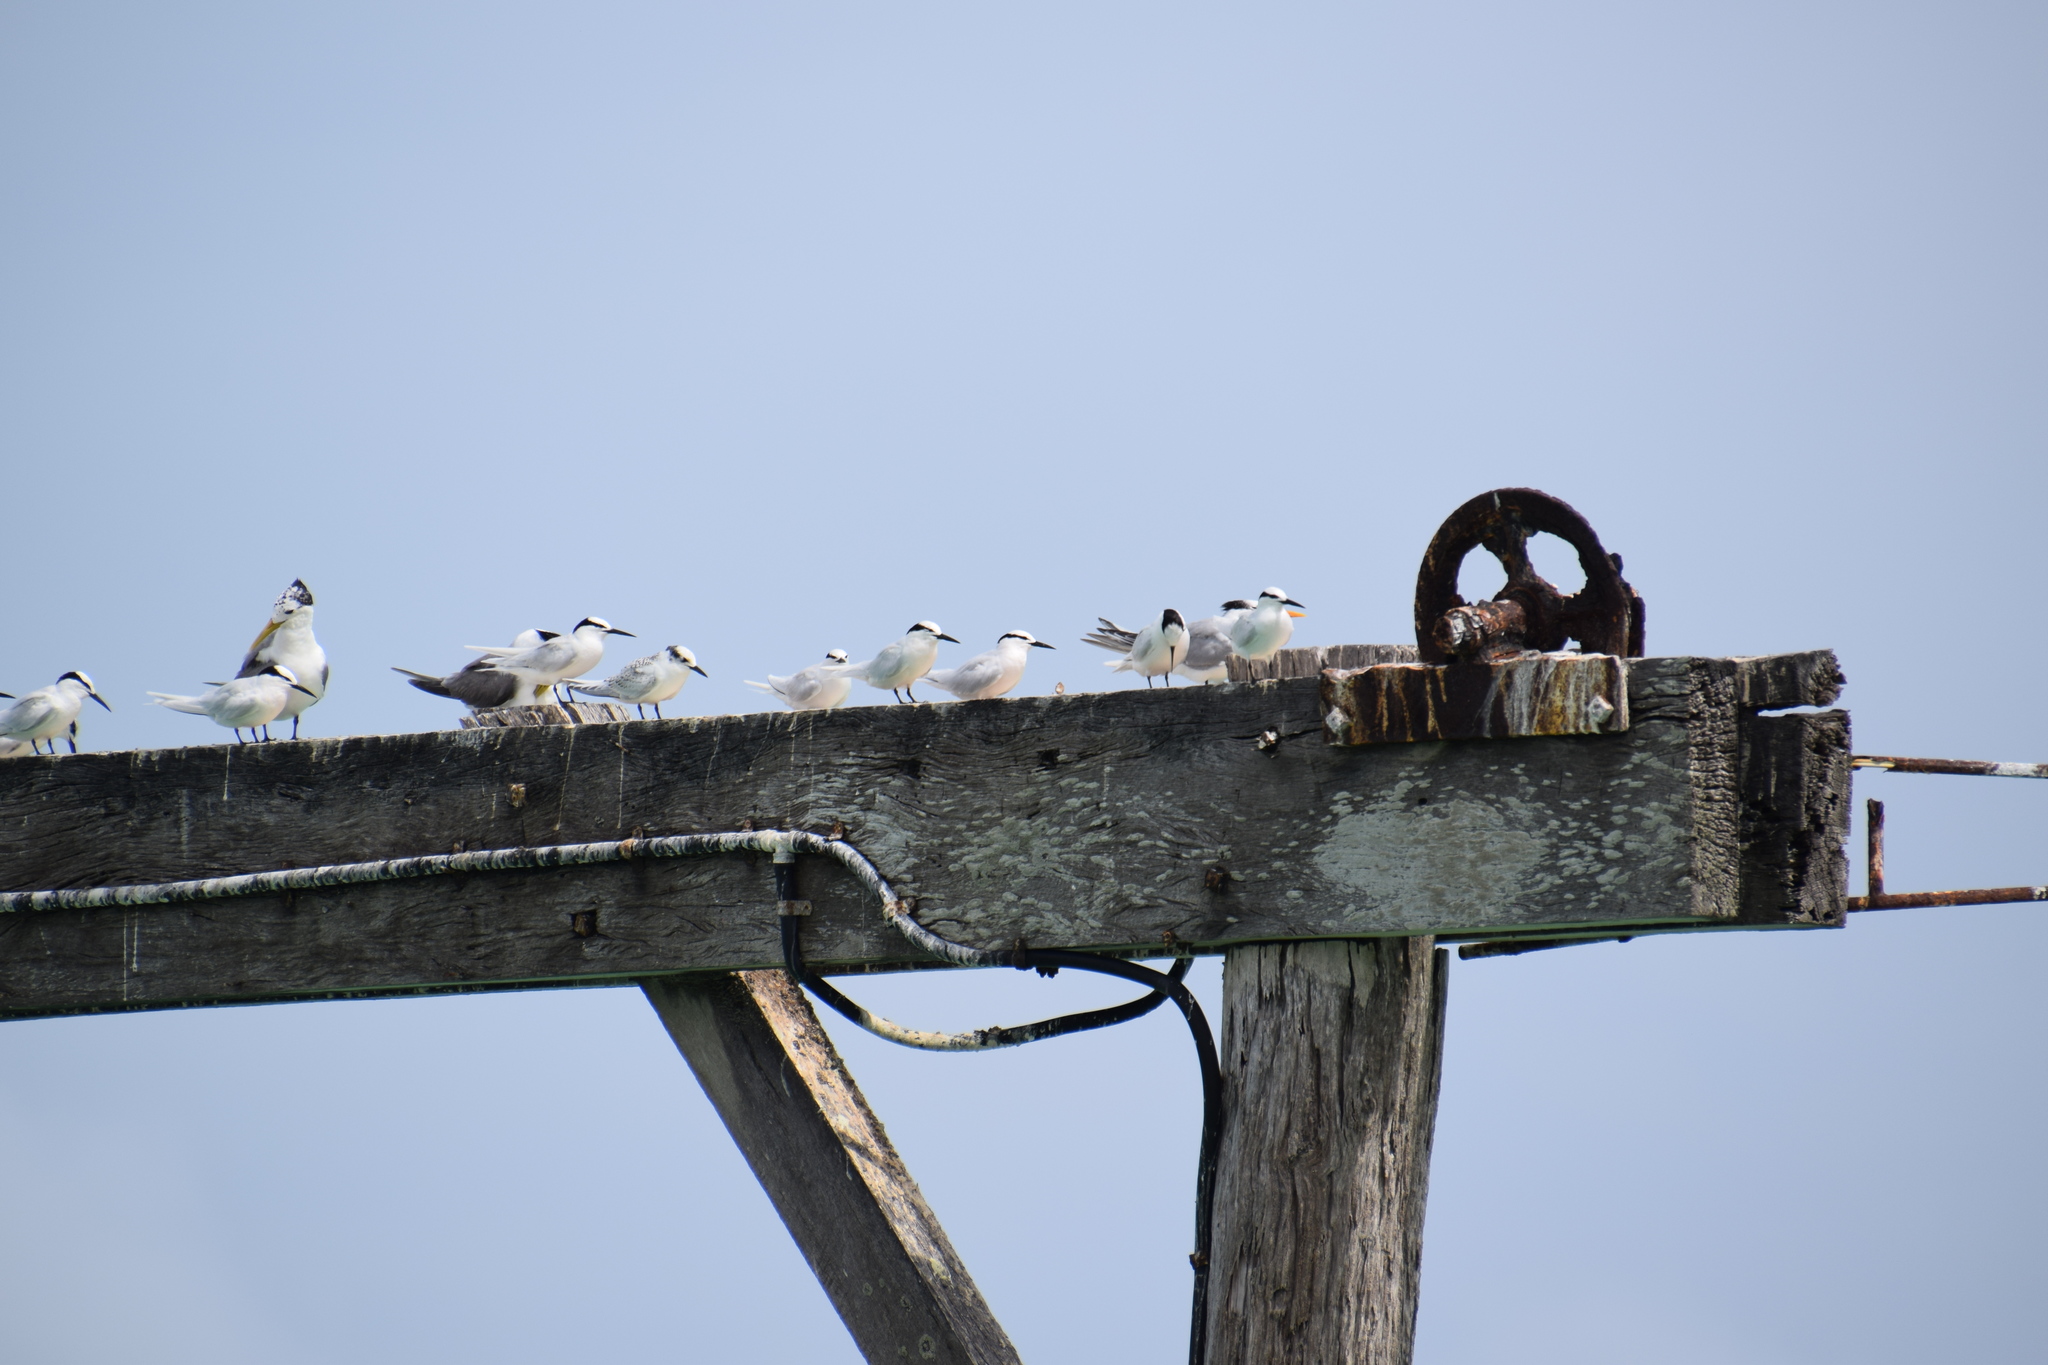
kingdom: Animalia
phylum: Chordata
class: Aves
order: Charadriiformes
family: Laridae
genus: Sterna
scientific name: Sterna sumatrana
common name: Black-naped tern
